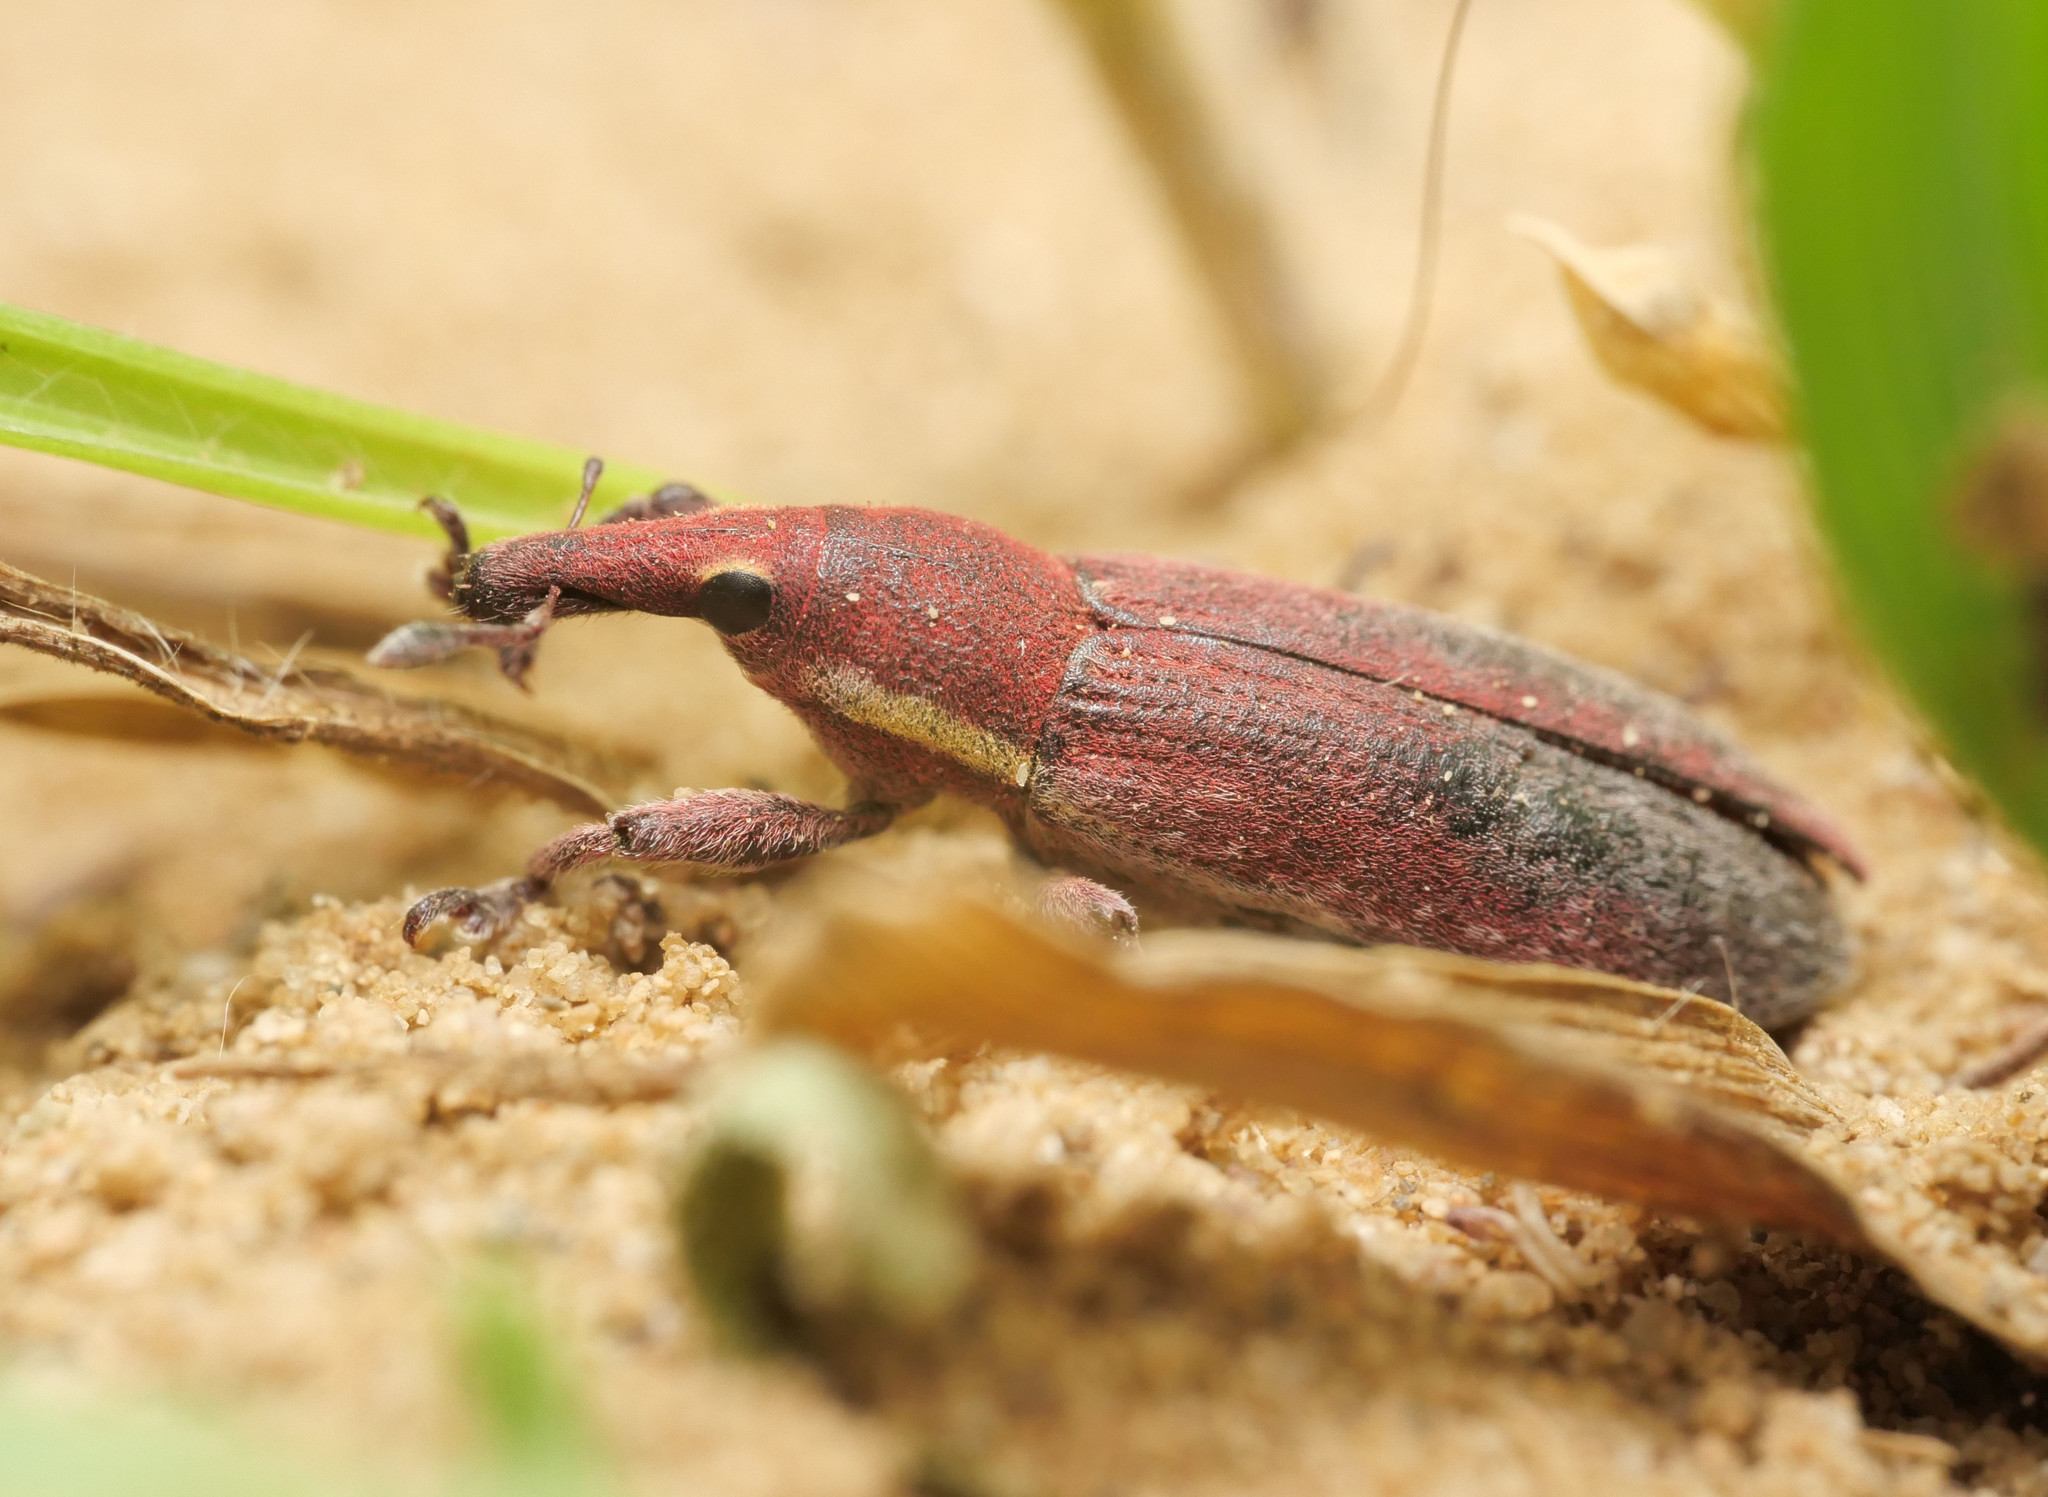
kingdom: Animalia
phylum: Arthropoda
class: Insecta
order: Coleoptera
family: Curculionidae
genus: Lixus
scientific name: Lixus vilis
